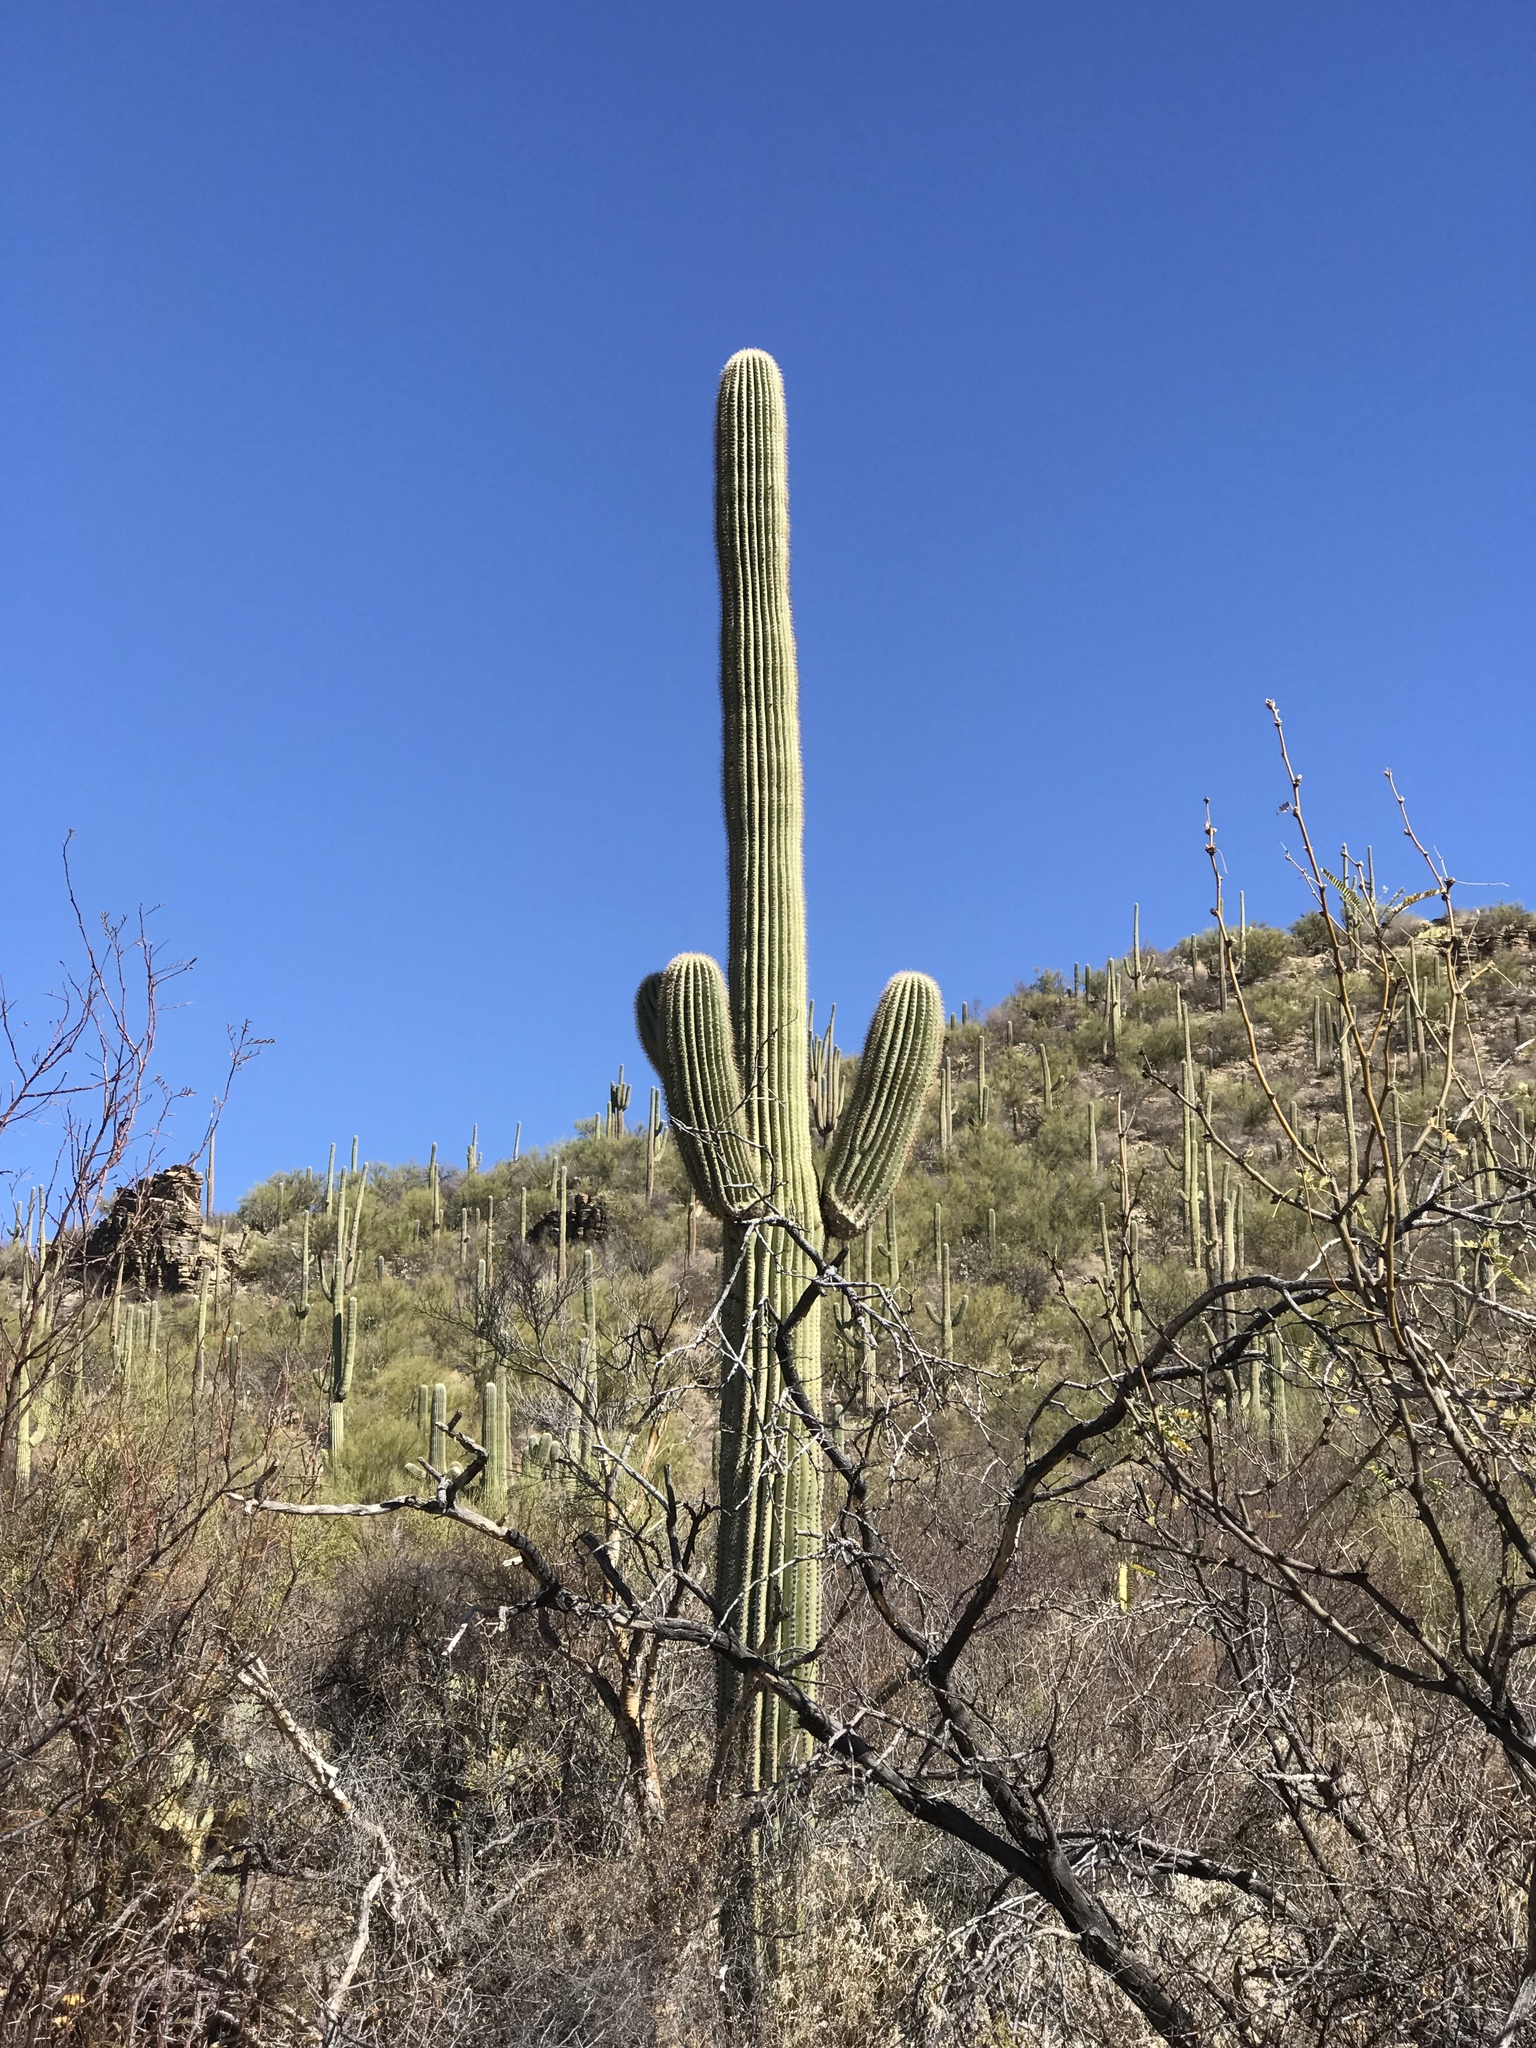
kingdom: Plantae
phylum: Tracheophyta
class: Magnoliopsida
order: Caryophyllales
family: Cactaceae
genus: Carnegiea
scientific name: Carnegiea gigantea
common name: Saguaro
